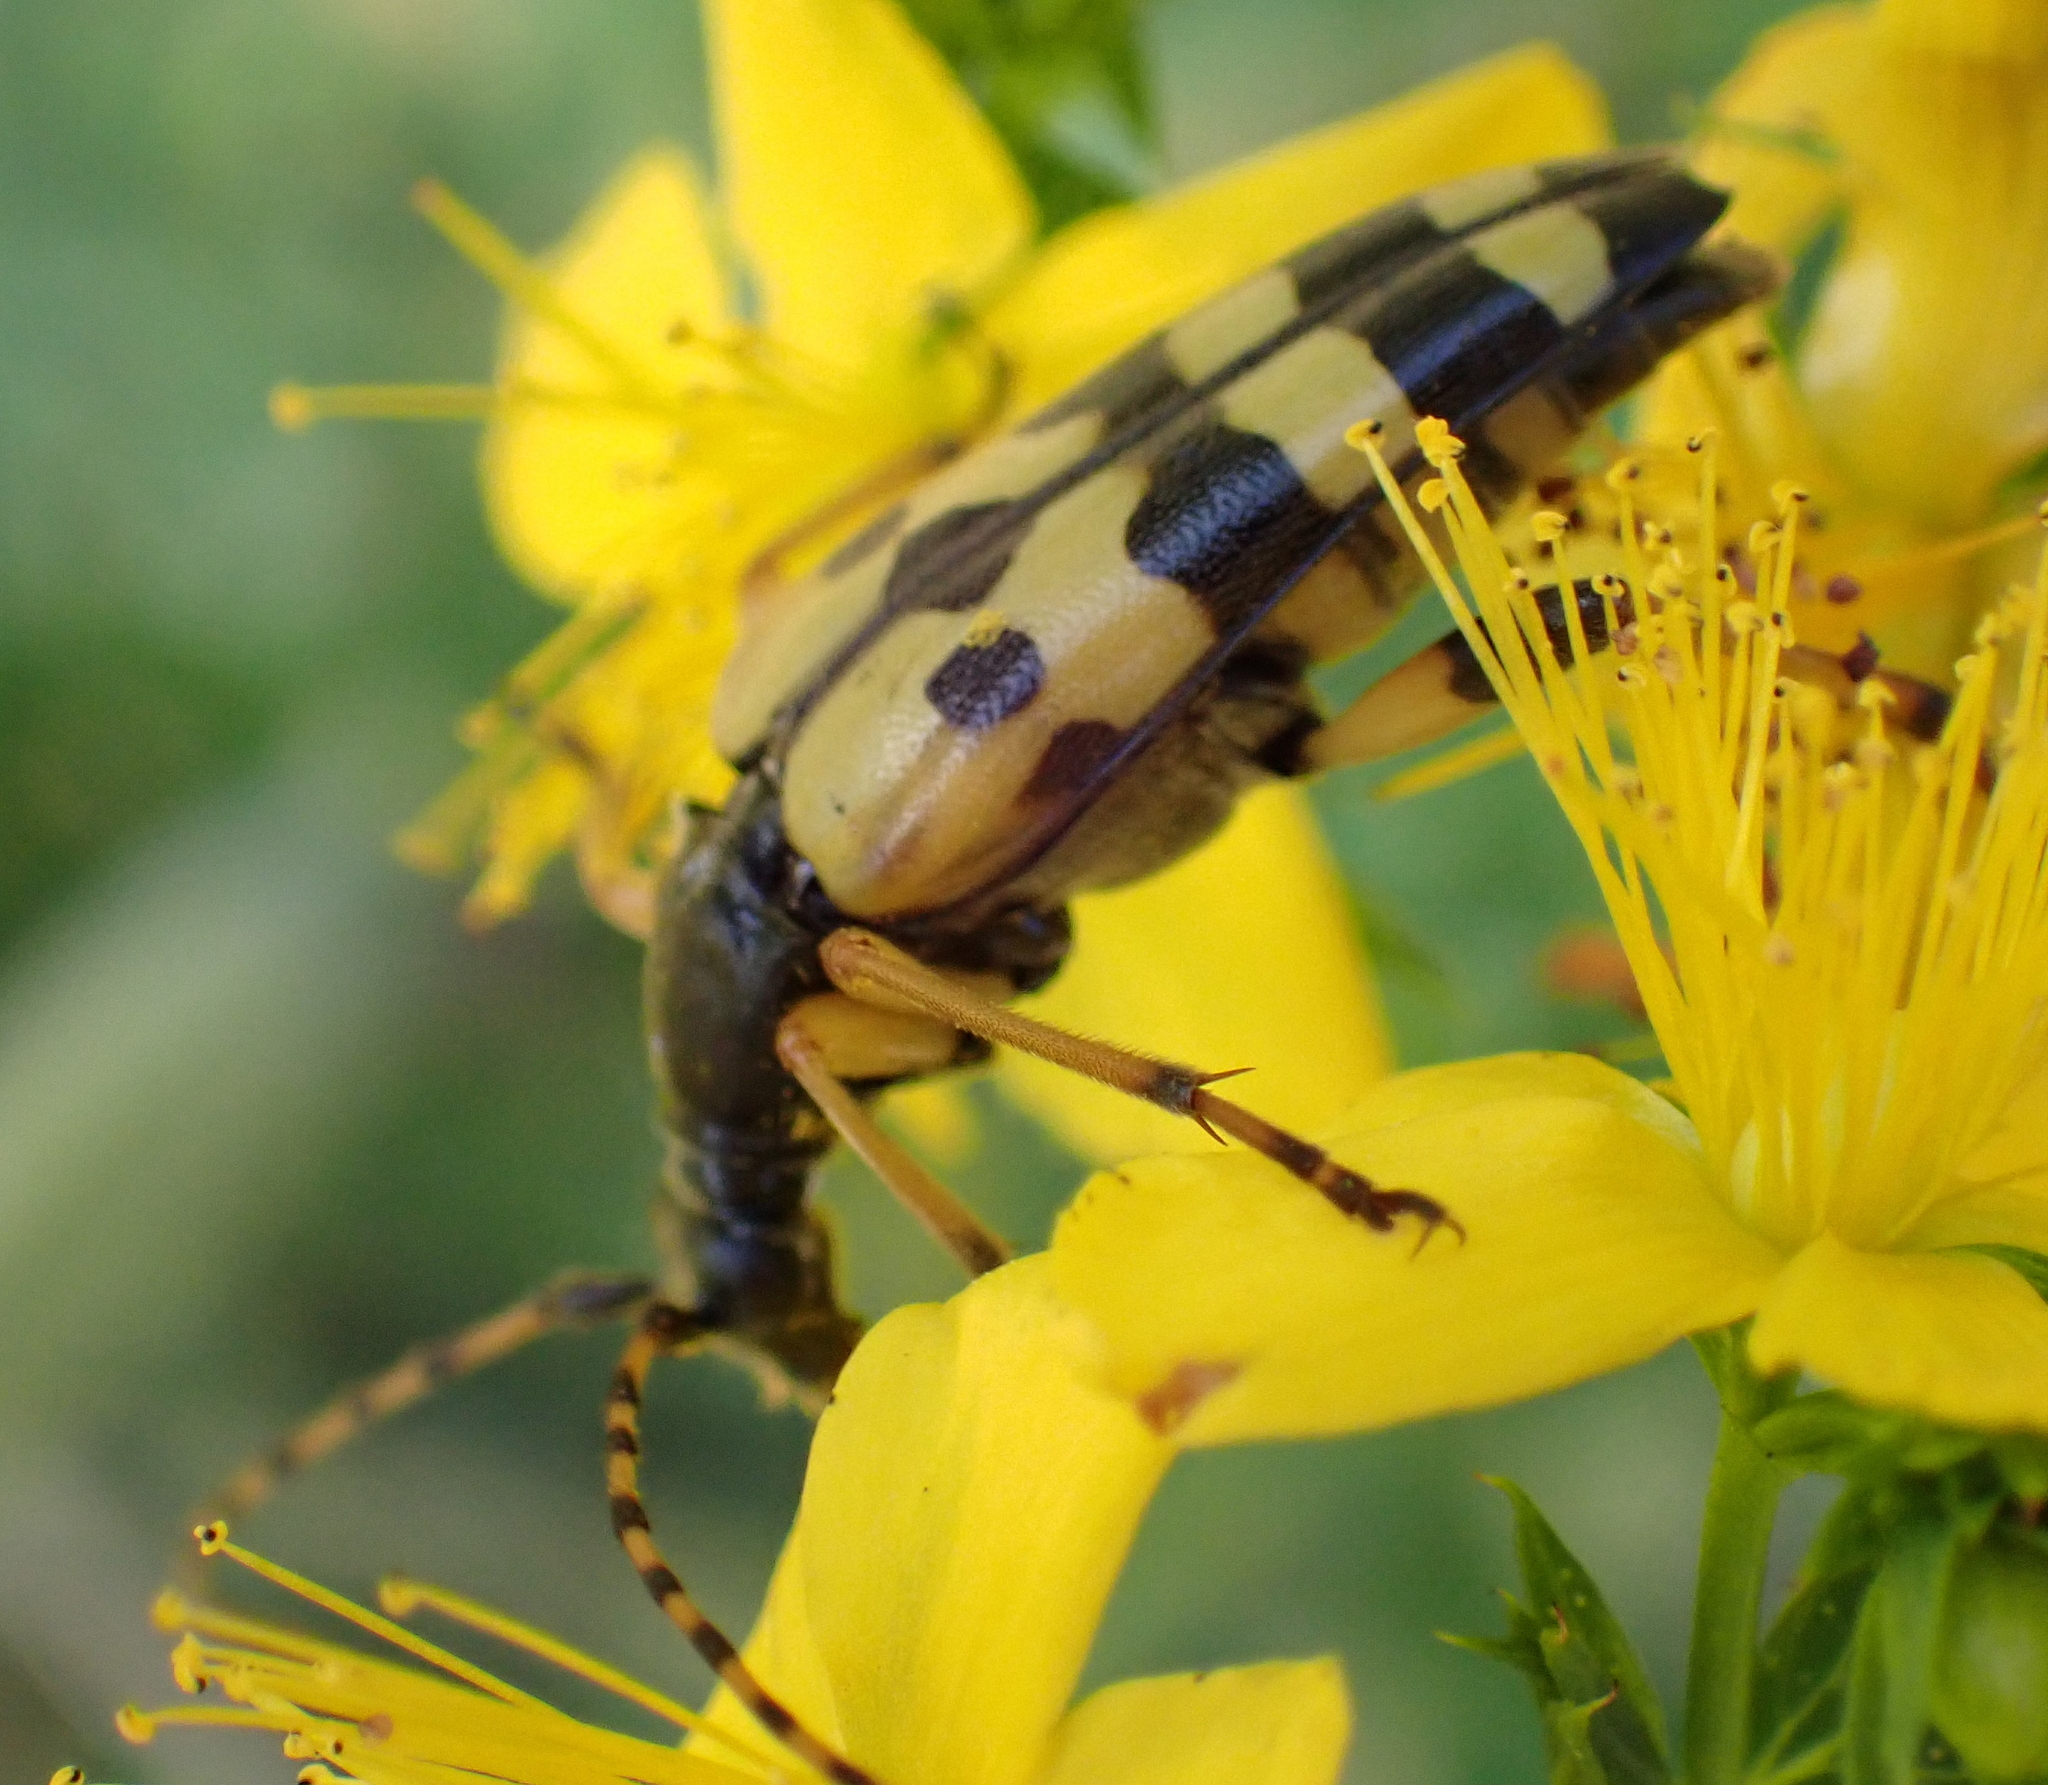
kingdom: Animalia
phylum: Arthropoda
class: Insecta
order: Coleoptera
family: Cerambycidae
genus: Rutpela
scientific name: Rutpela maculata
